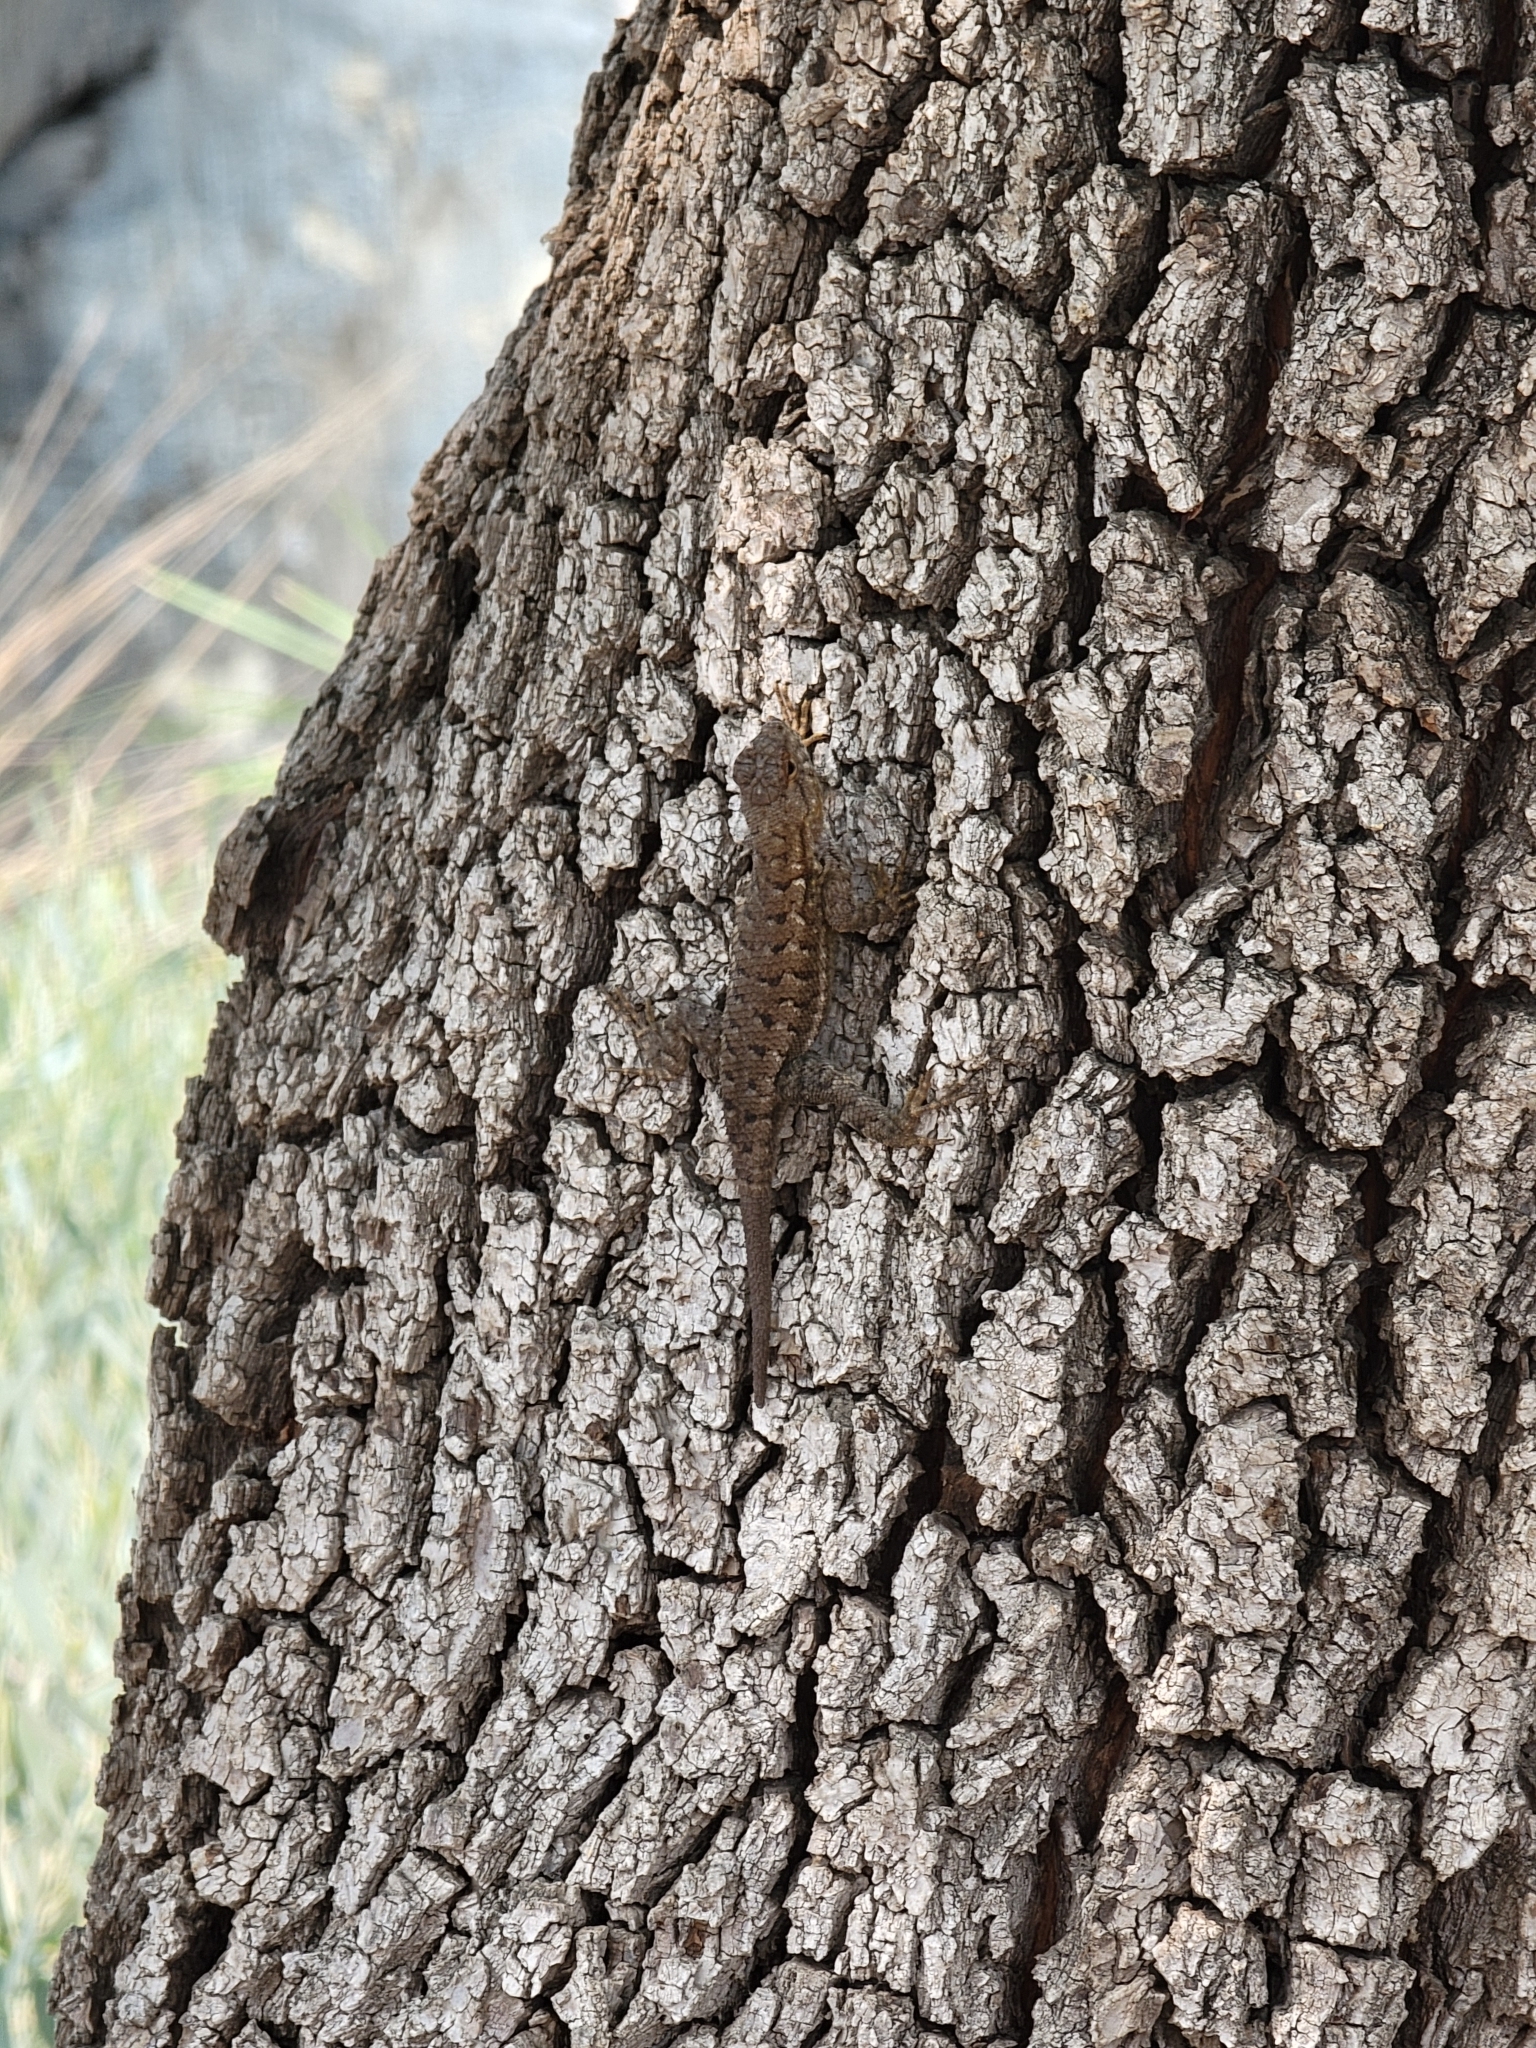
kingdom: Animalia
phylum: Chordata
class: Squamata
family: Phrynosomatidae
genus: Sceloporus
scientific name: Sceloporus occidentalis
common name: Western fence lizard
